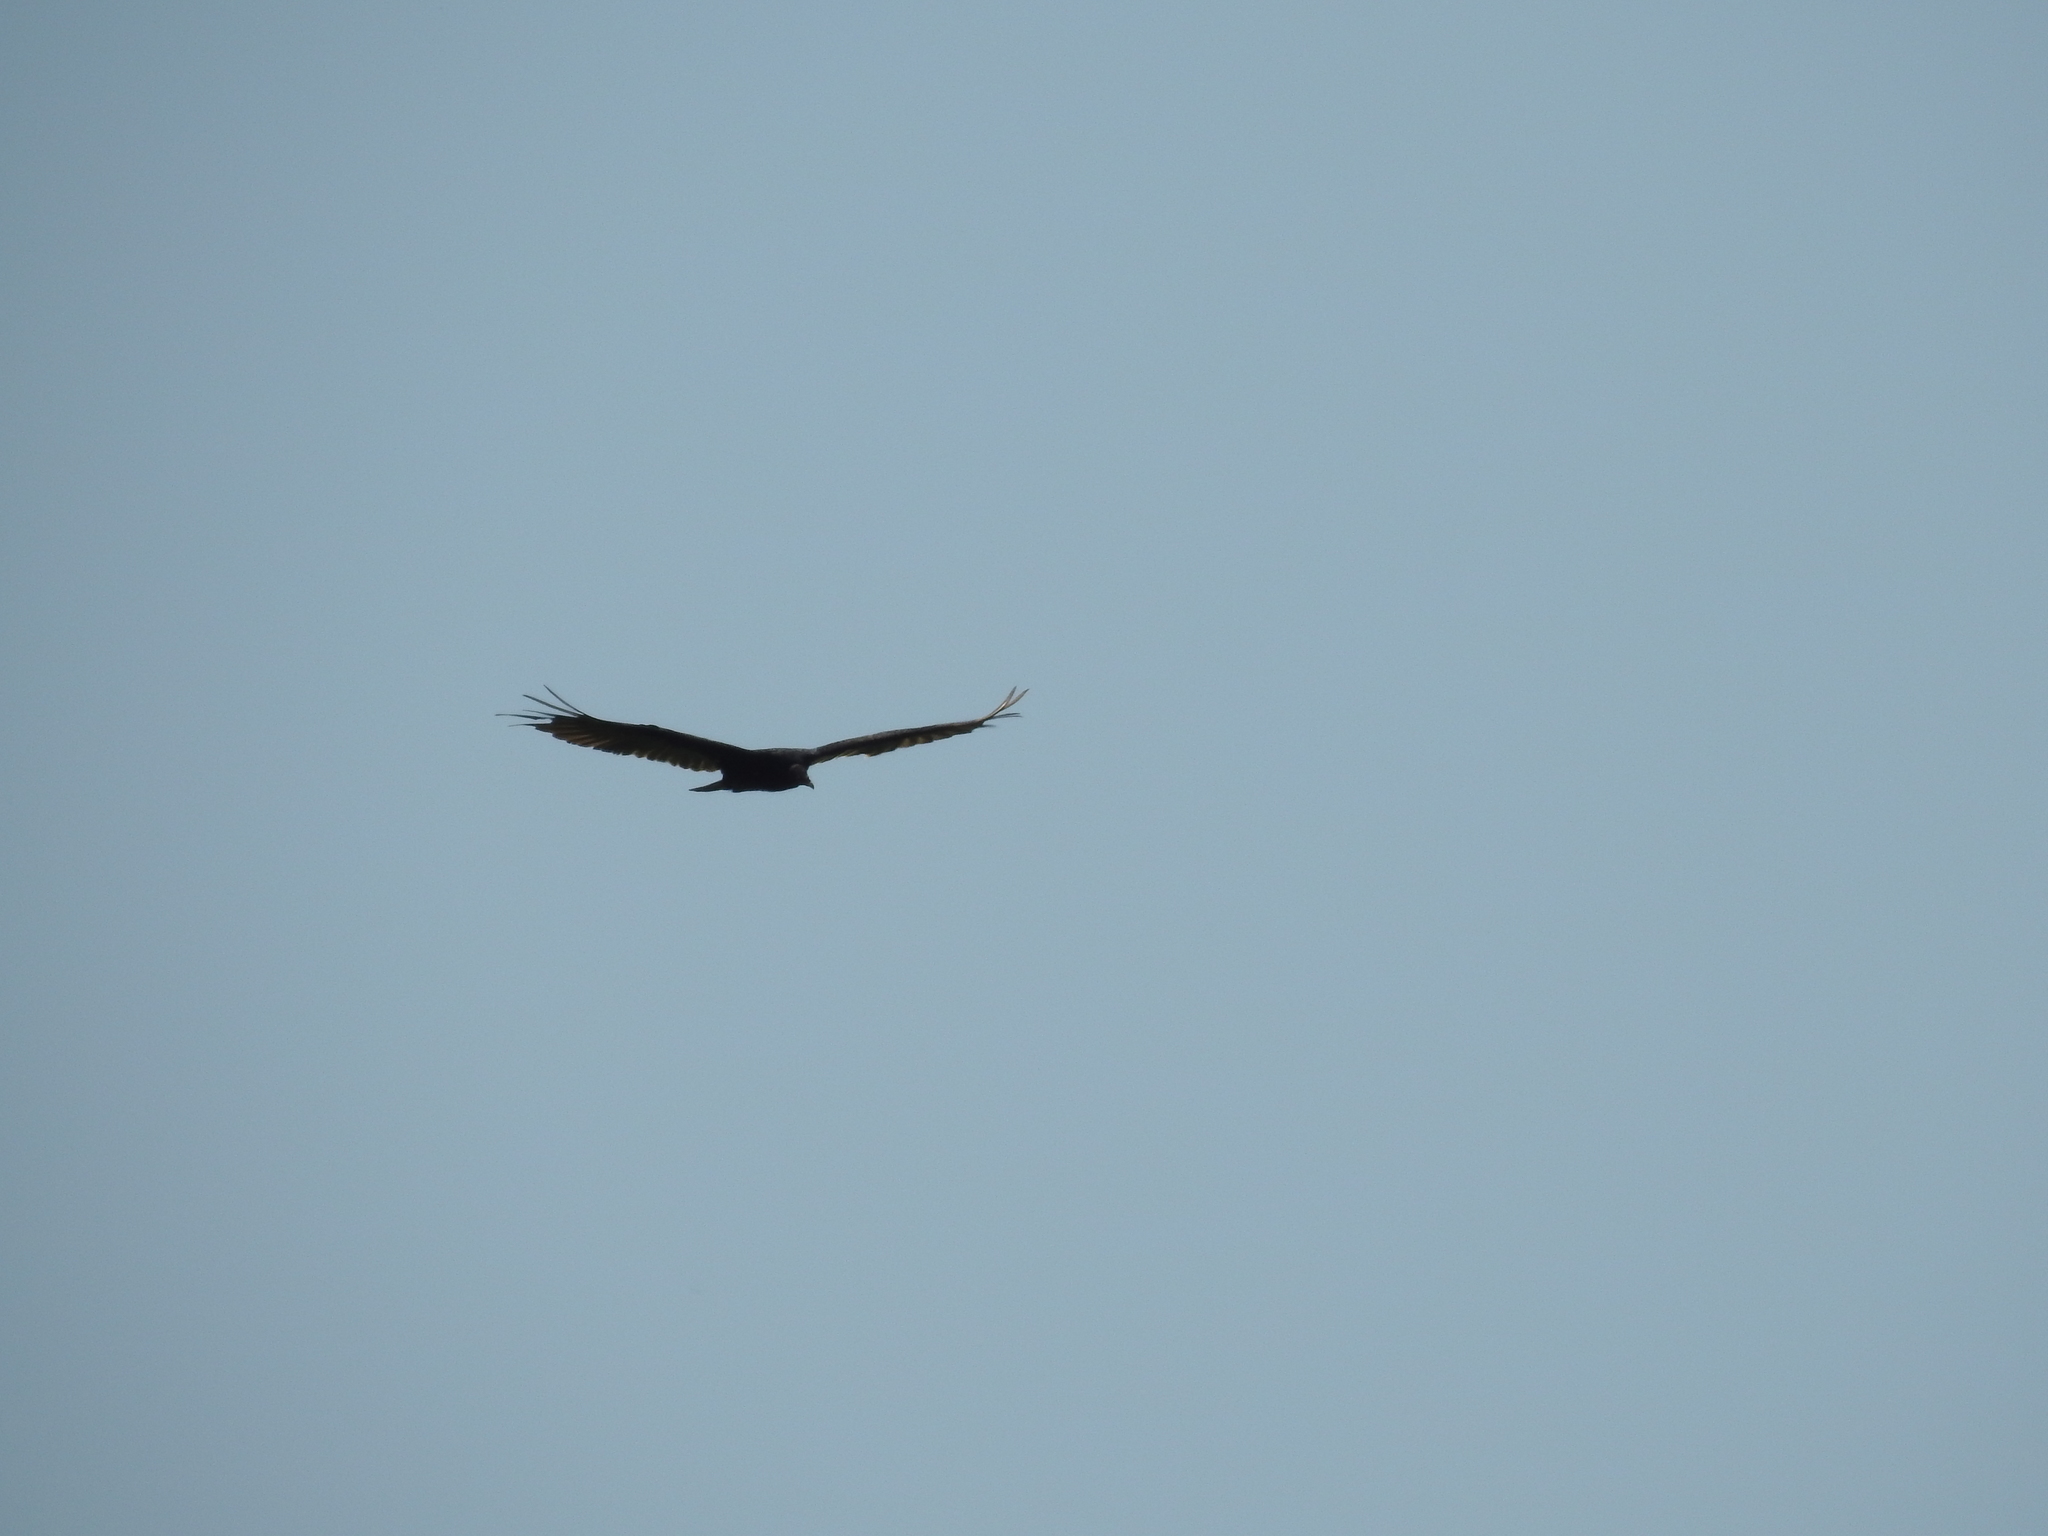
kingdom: Animalia
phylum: Chordata
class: Aves
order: Accipitriformes
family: Cathartidae
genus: Cathartes
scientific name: Cathartes aura
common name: Turkey vulture
